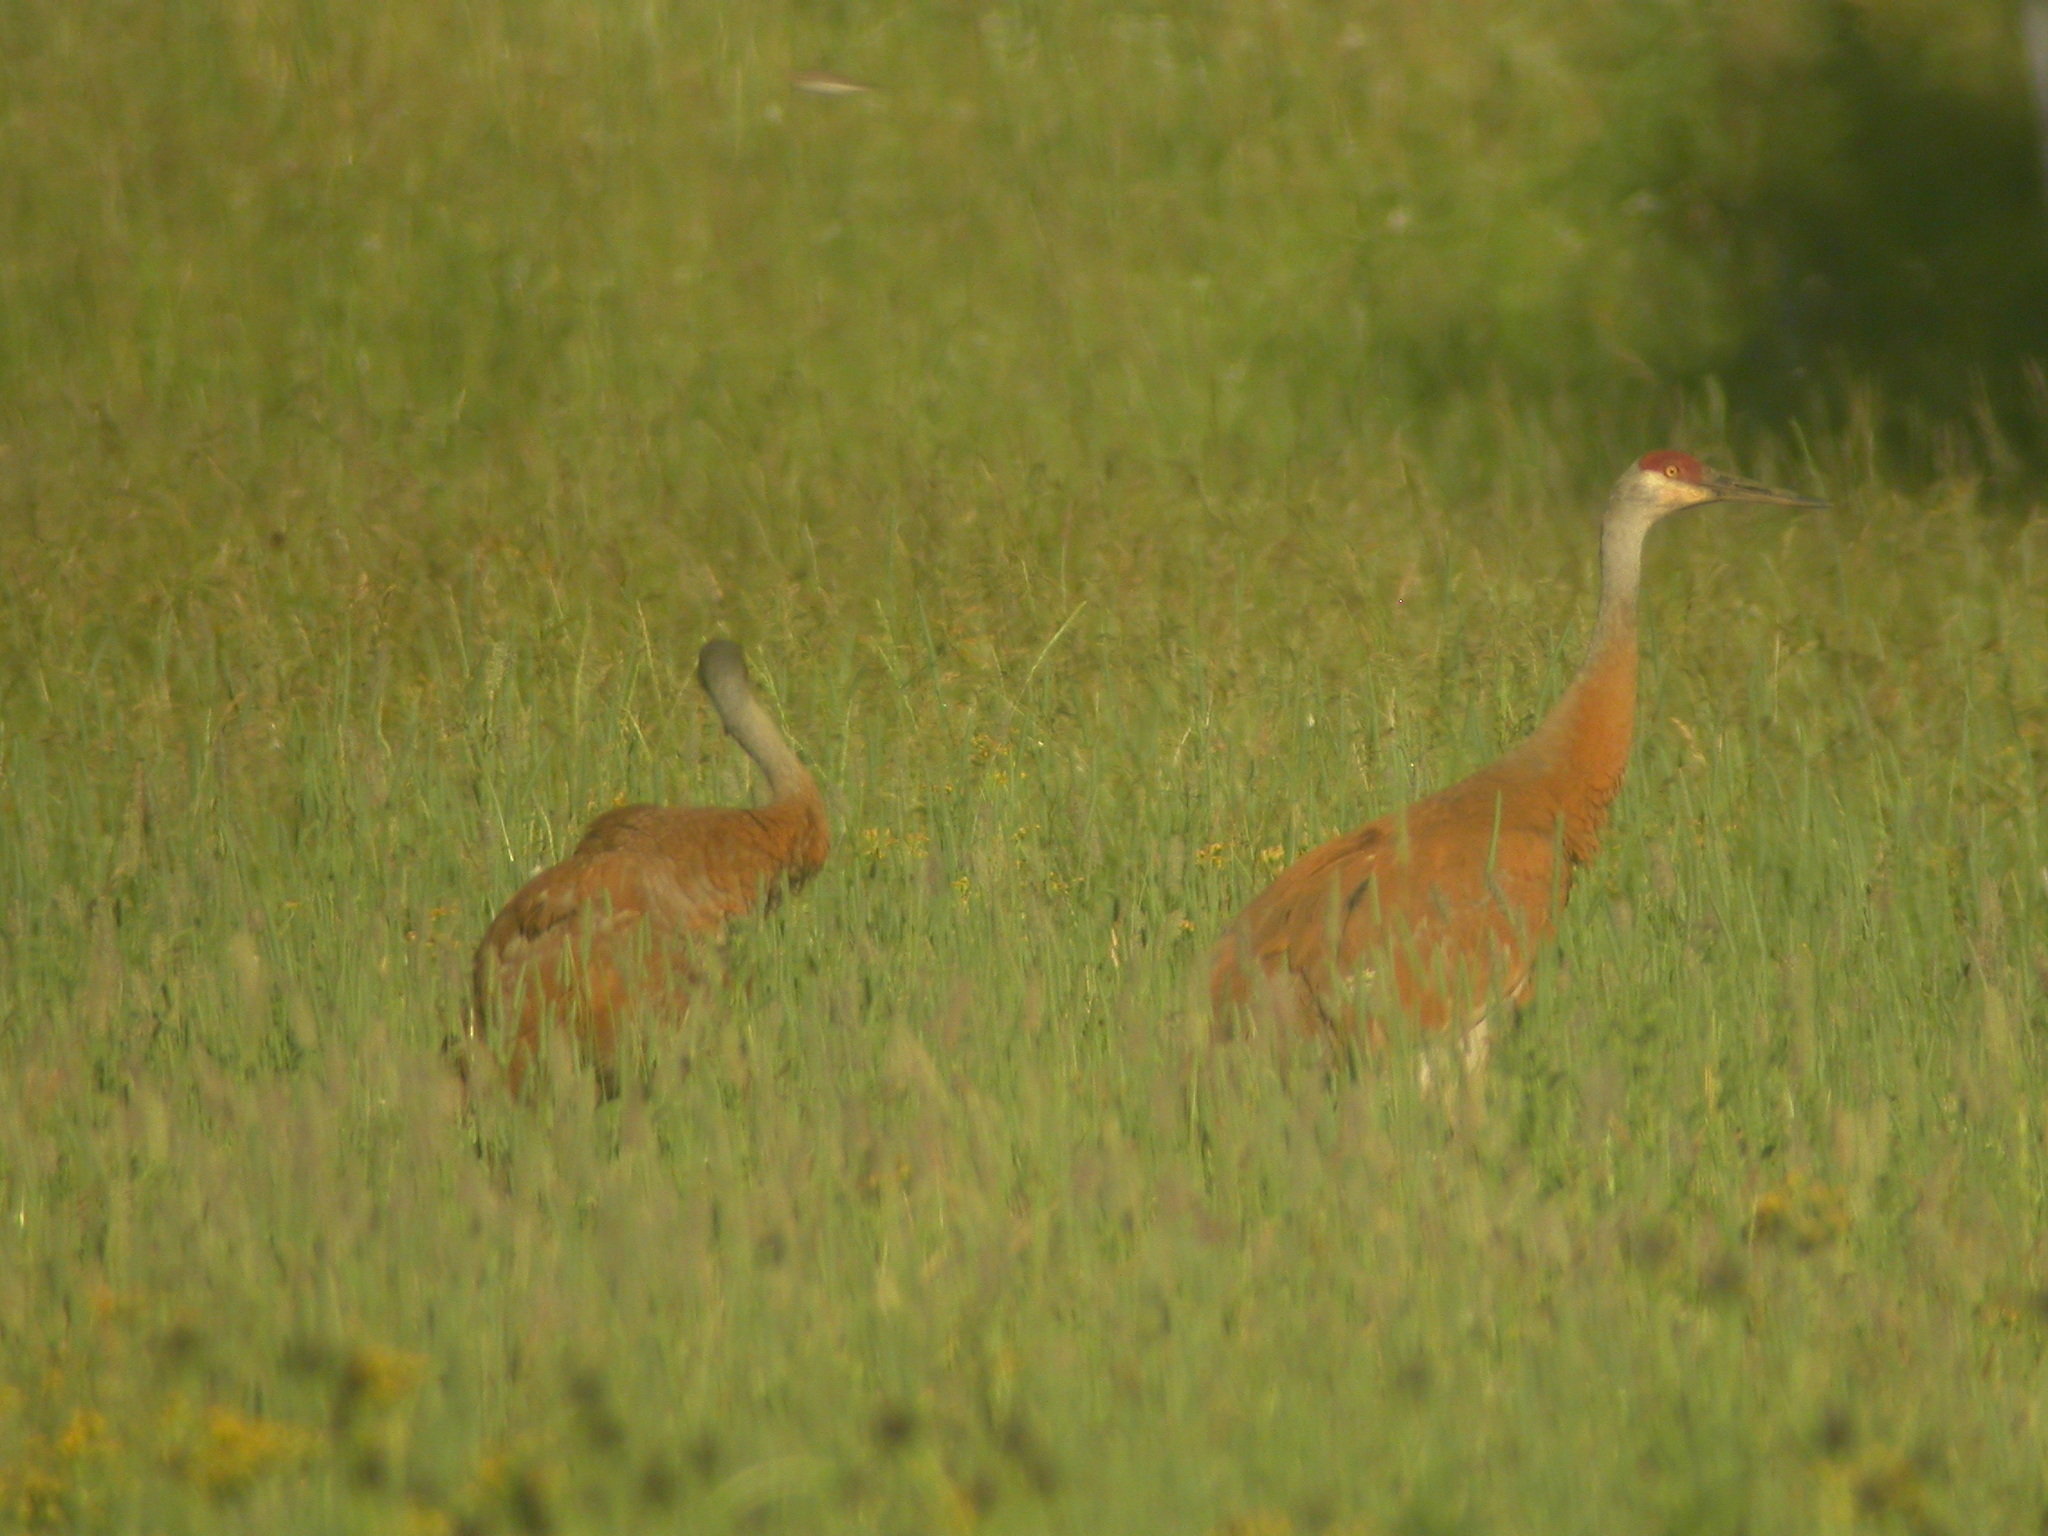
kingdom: Animalia
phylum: Chordata
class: Aves
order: Gruiformes
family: Gruidae
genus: Grus
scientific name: Grus canadensis
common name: Sandhill crane
